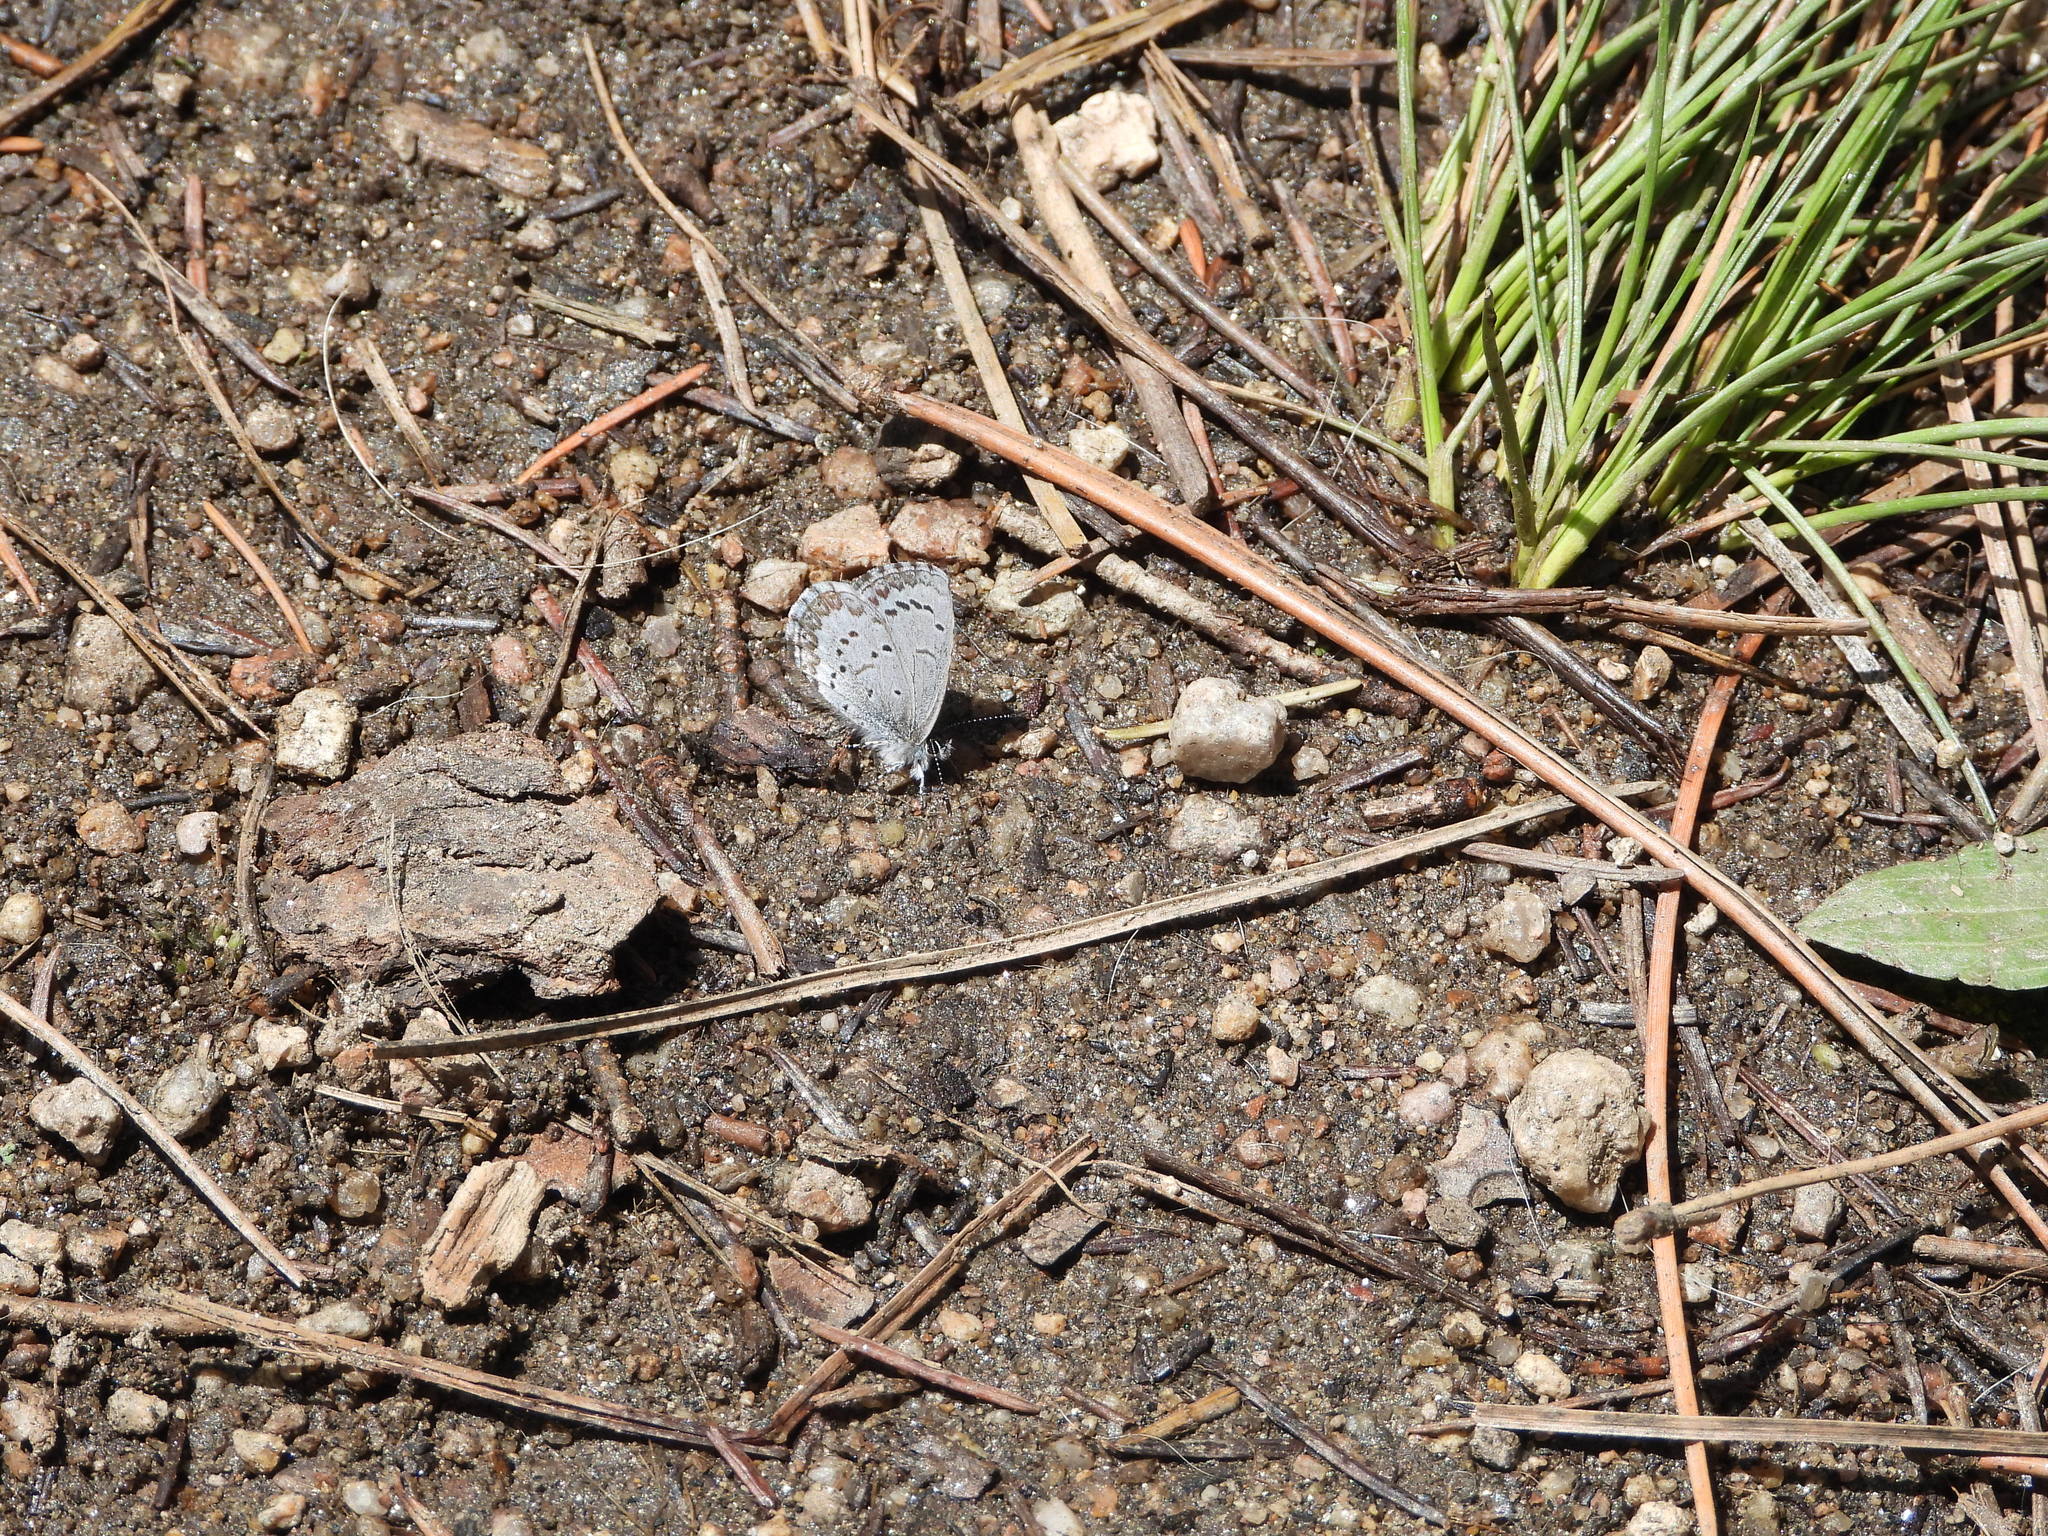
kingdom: Animalia
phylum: Arthropoda
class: Insecta
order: Lepidoptera
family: Lycaenidae
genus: Celastrina
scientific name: Celastrina ladon
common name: Spring azure
